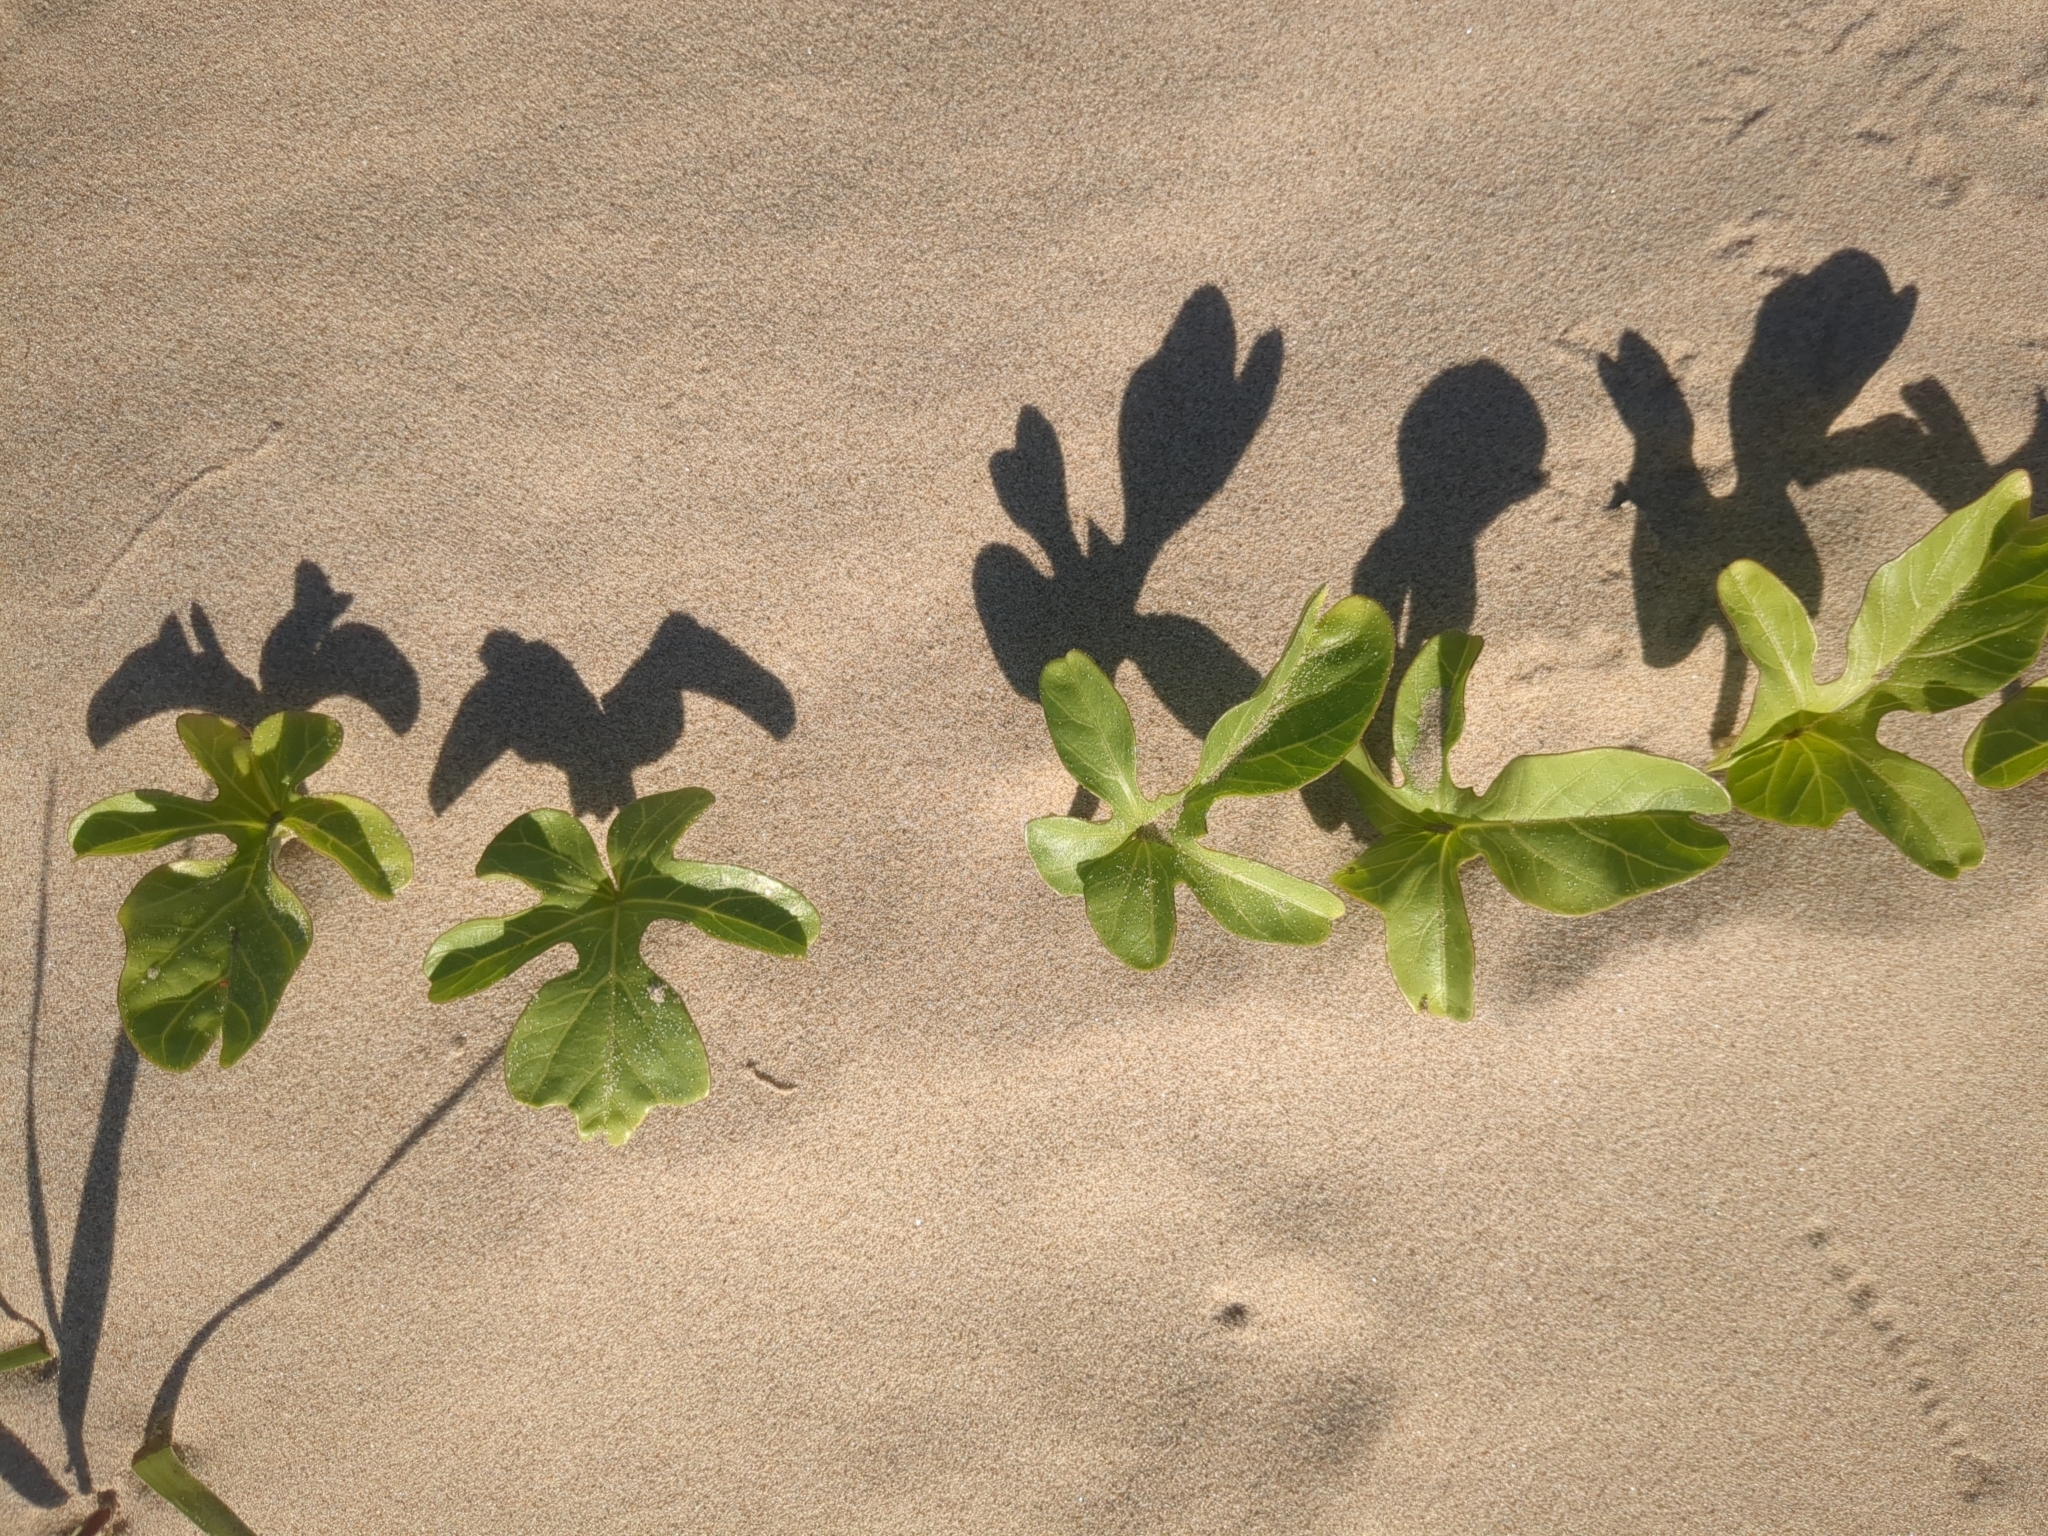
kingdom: Plantae
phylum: Tracheophyta
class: Magnoliopsida
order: Solanales
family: Convolvulaceae
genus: Ipomoea
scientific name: Ipomoea imperati
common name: Fiddle-leaf morning-glory
